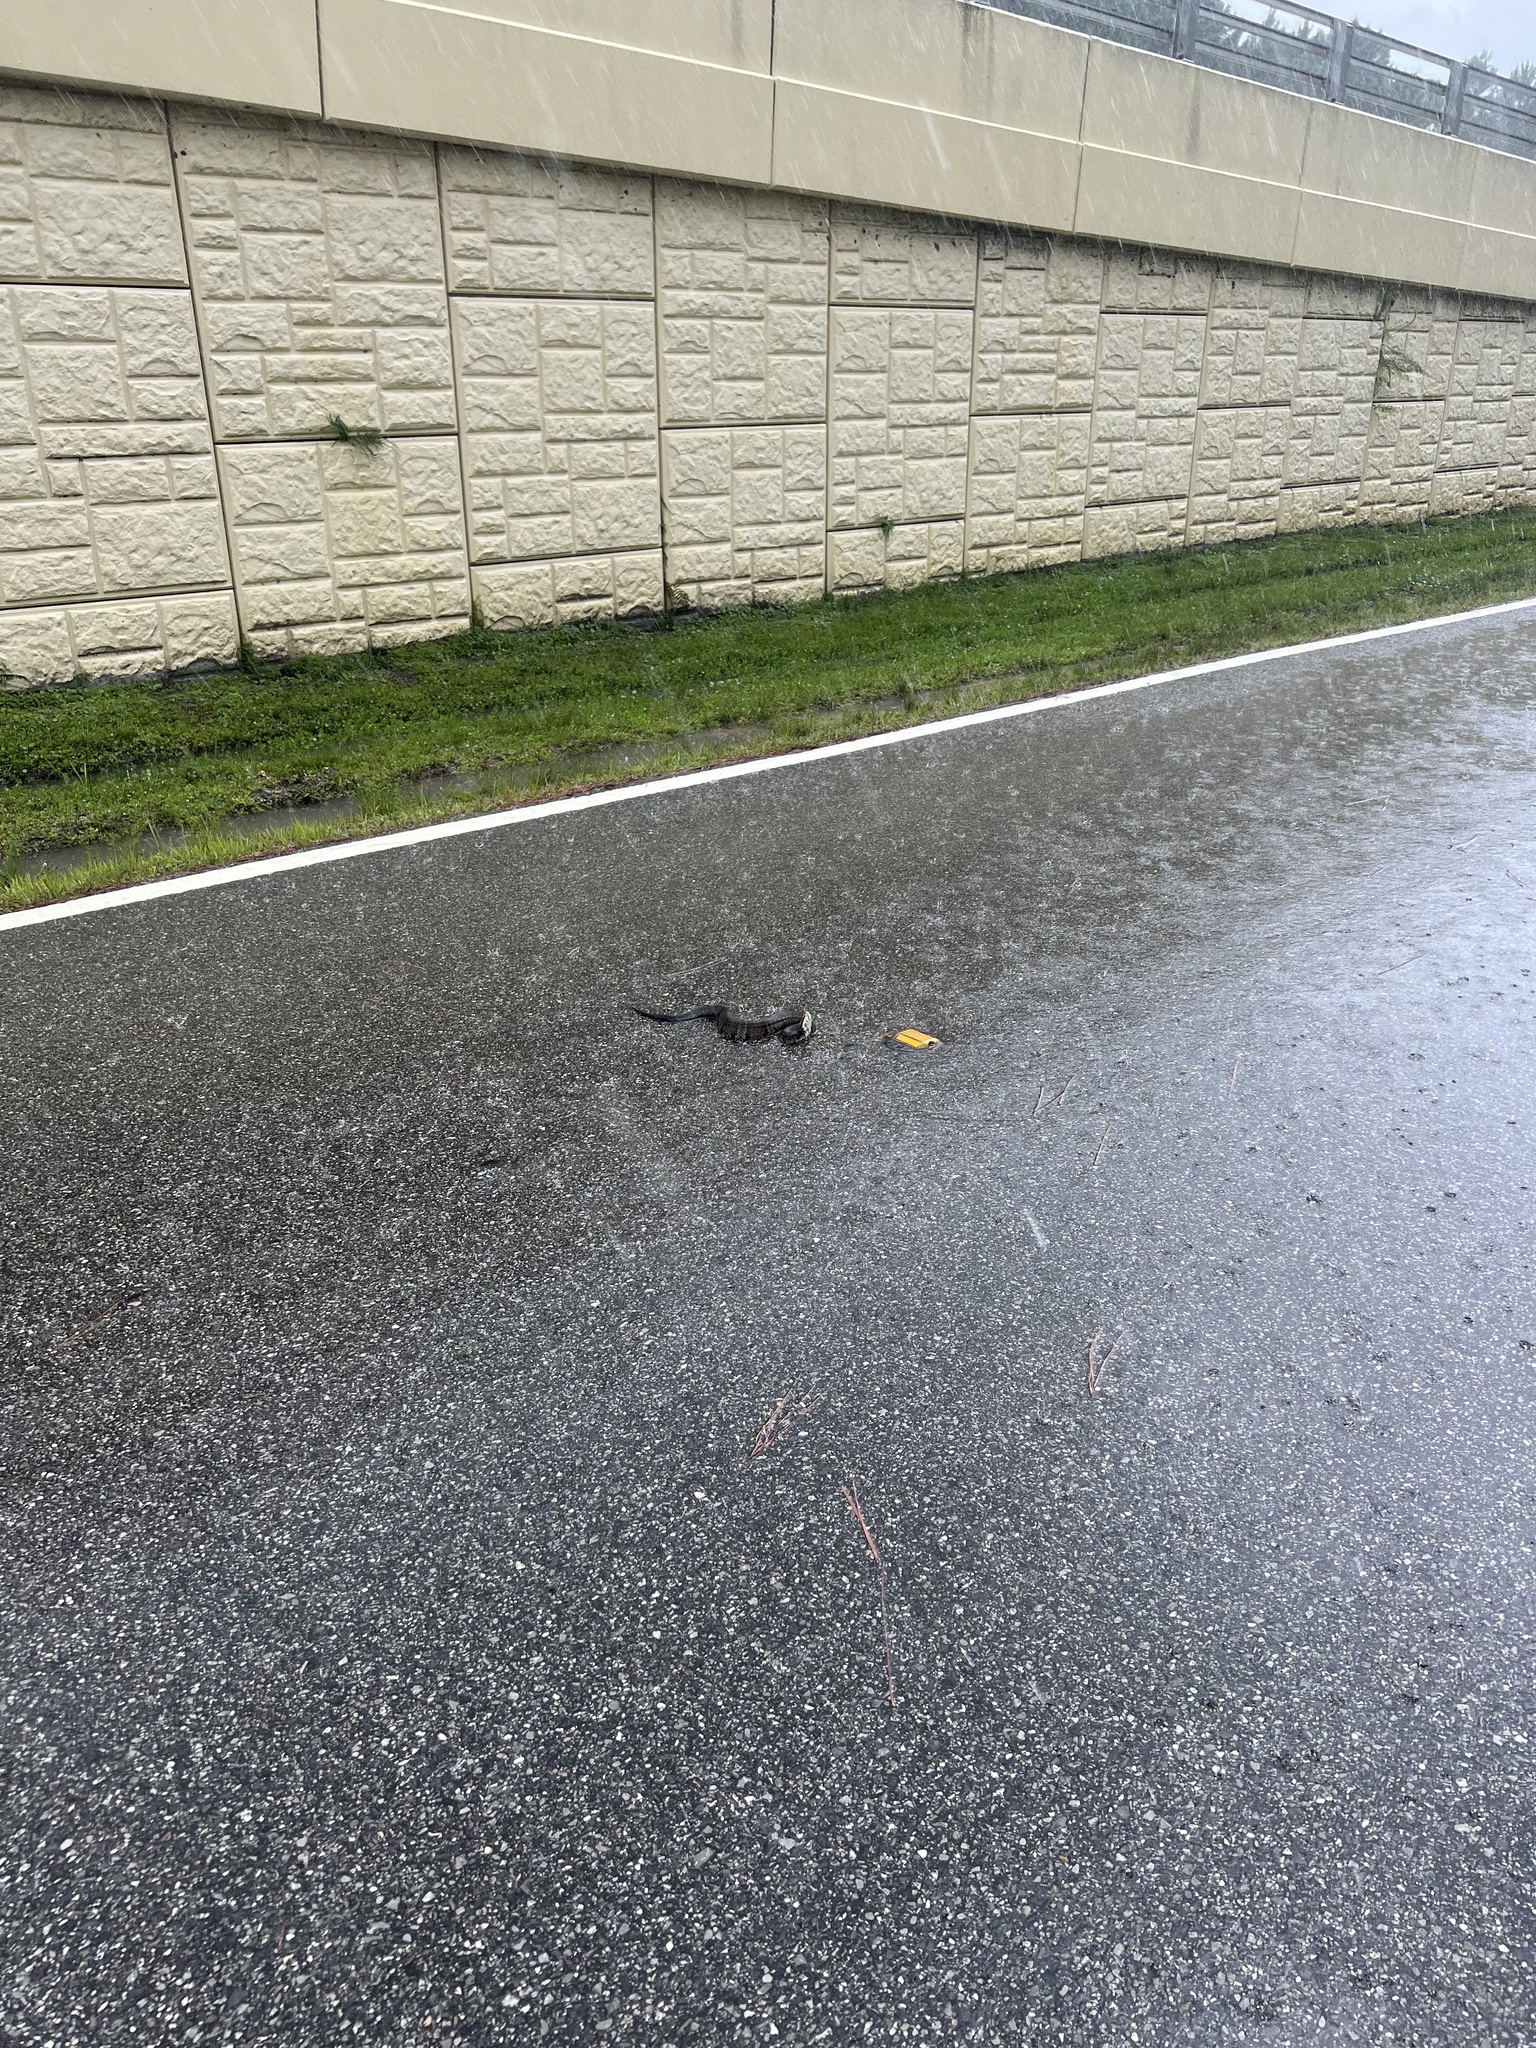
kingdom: Animalia
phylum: Chordata
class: Squamata
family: Viperidae
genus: Agkistrodon
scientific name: Agkistrodon conanti
